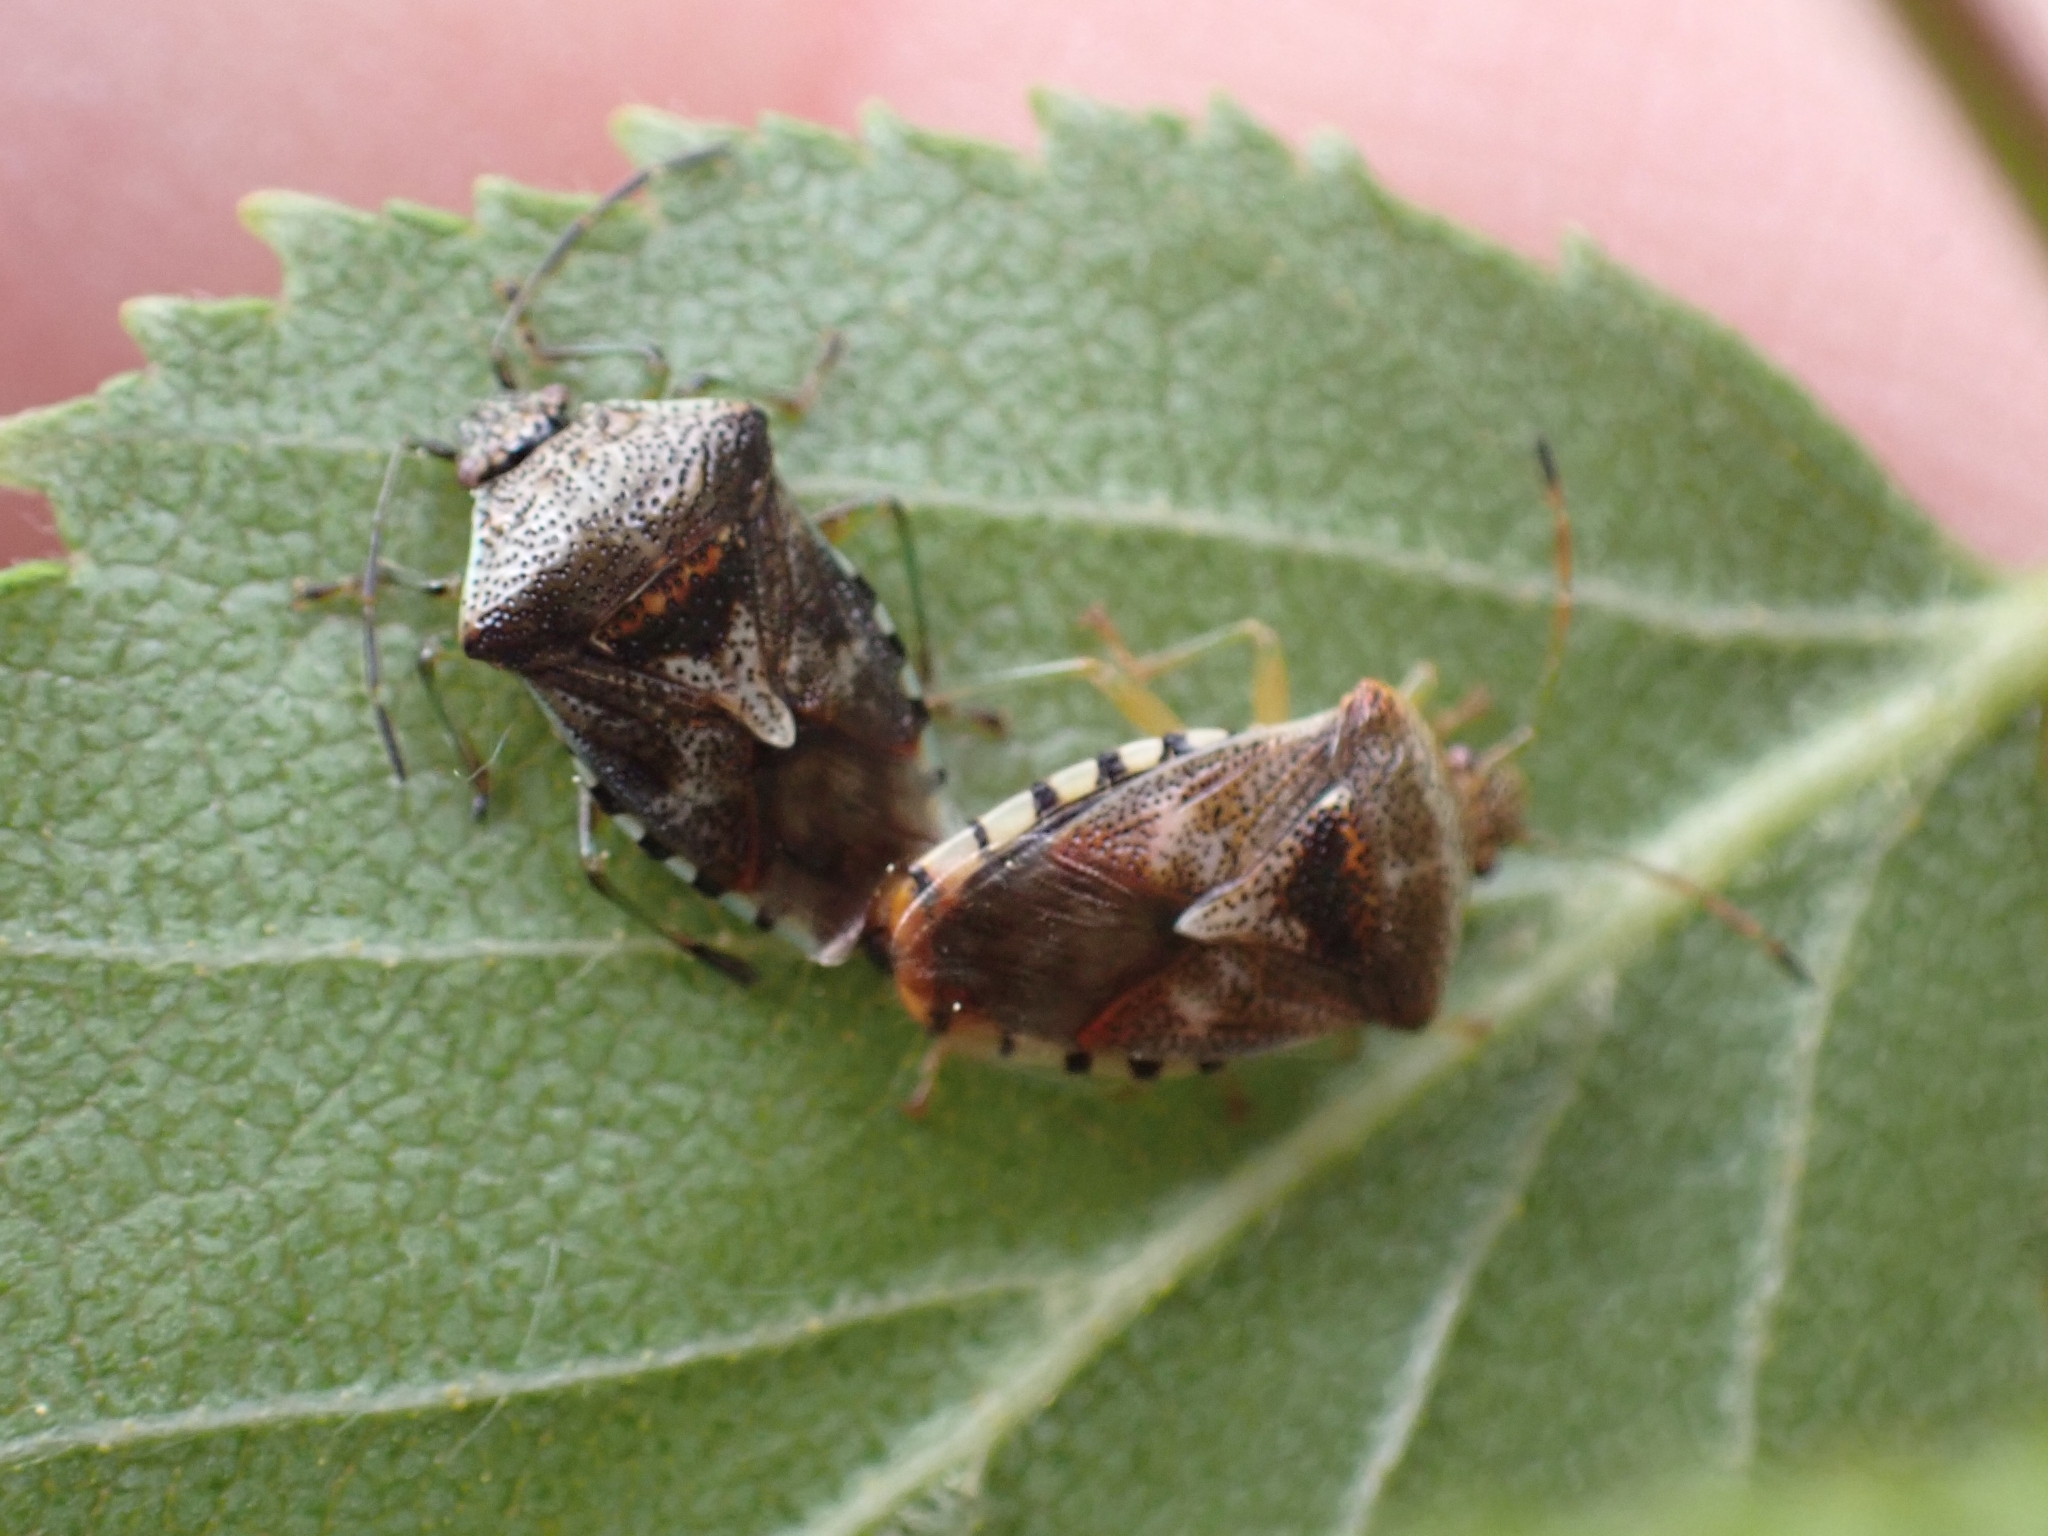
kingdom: Animalia
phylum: Arthropoda
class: Insecta
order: Hemiptera
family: Acanthosomatidae
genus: Elasmucha
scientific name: Elasmucha grisea
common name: Parent bug
